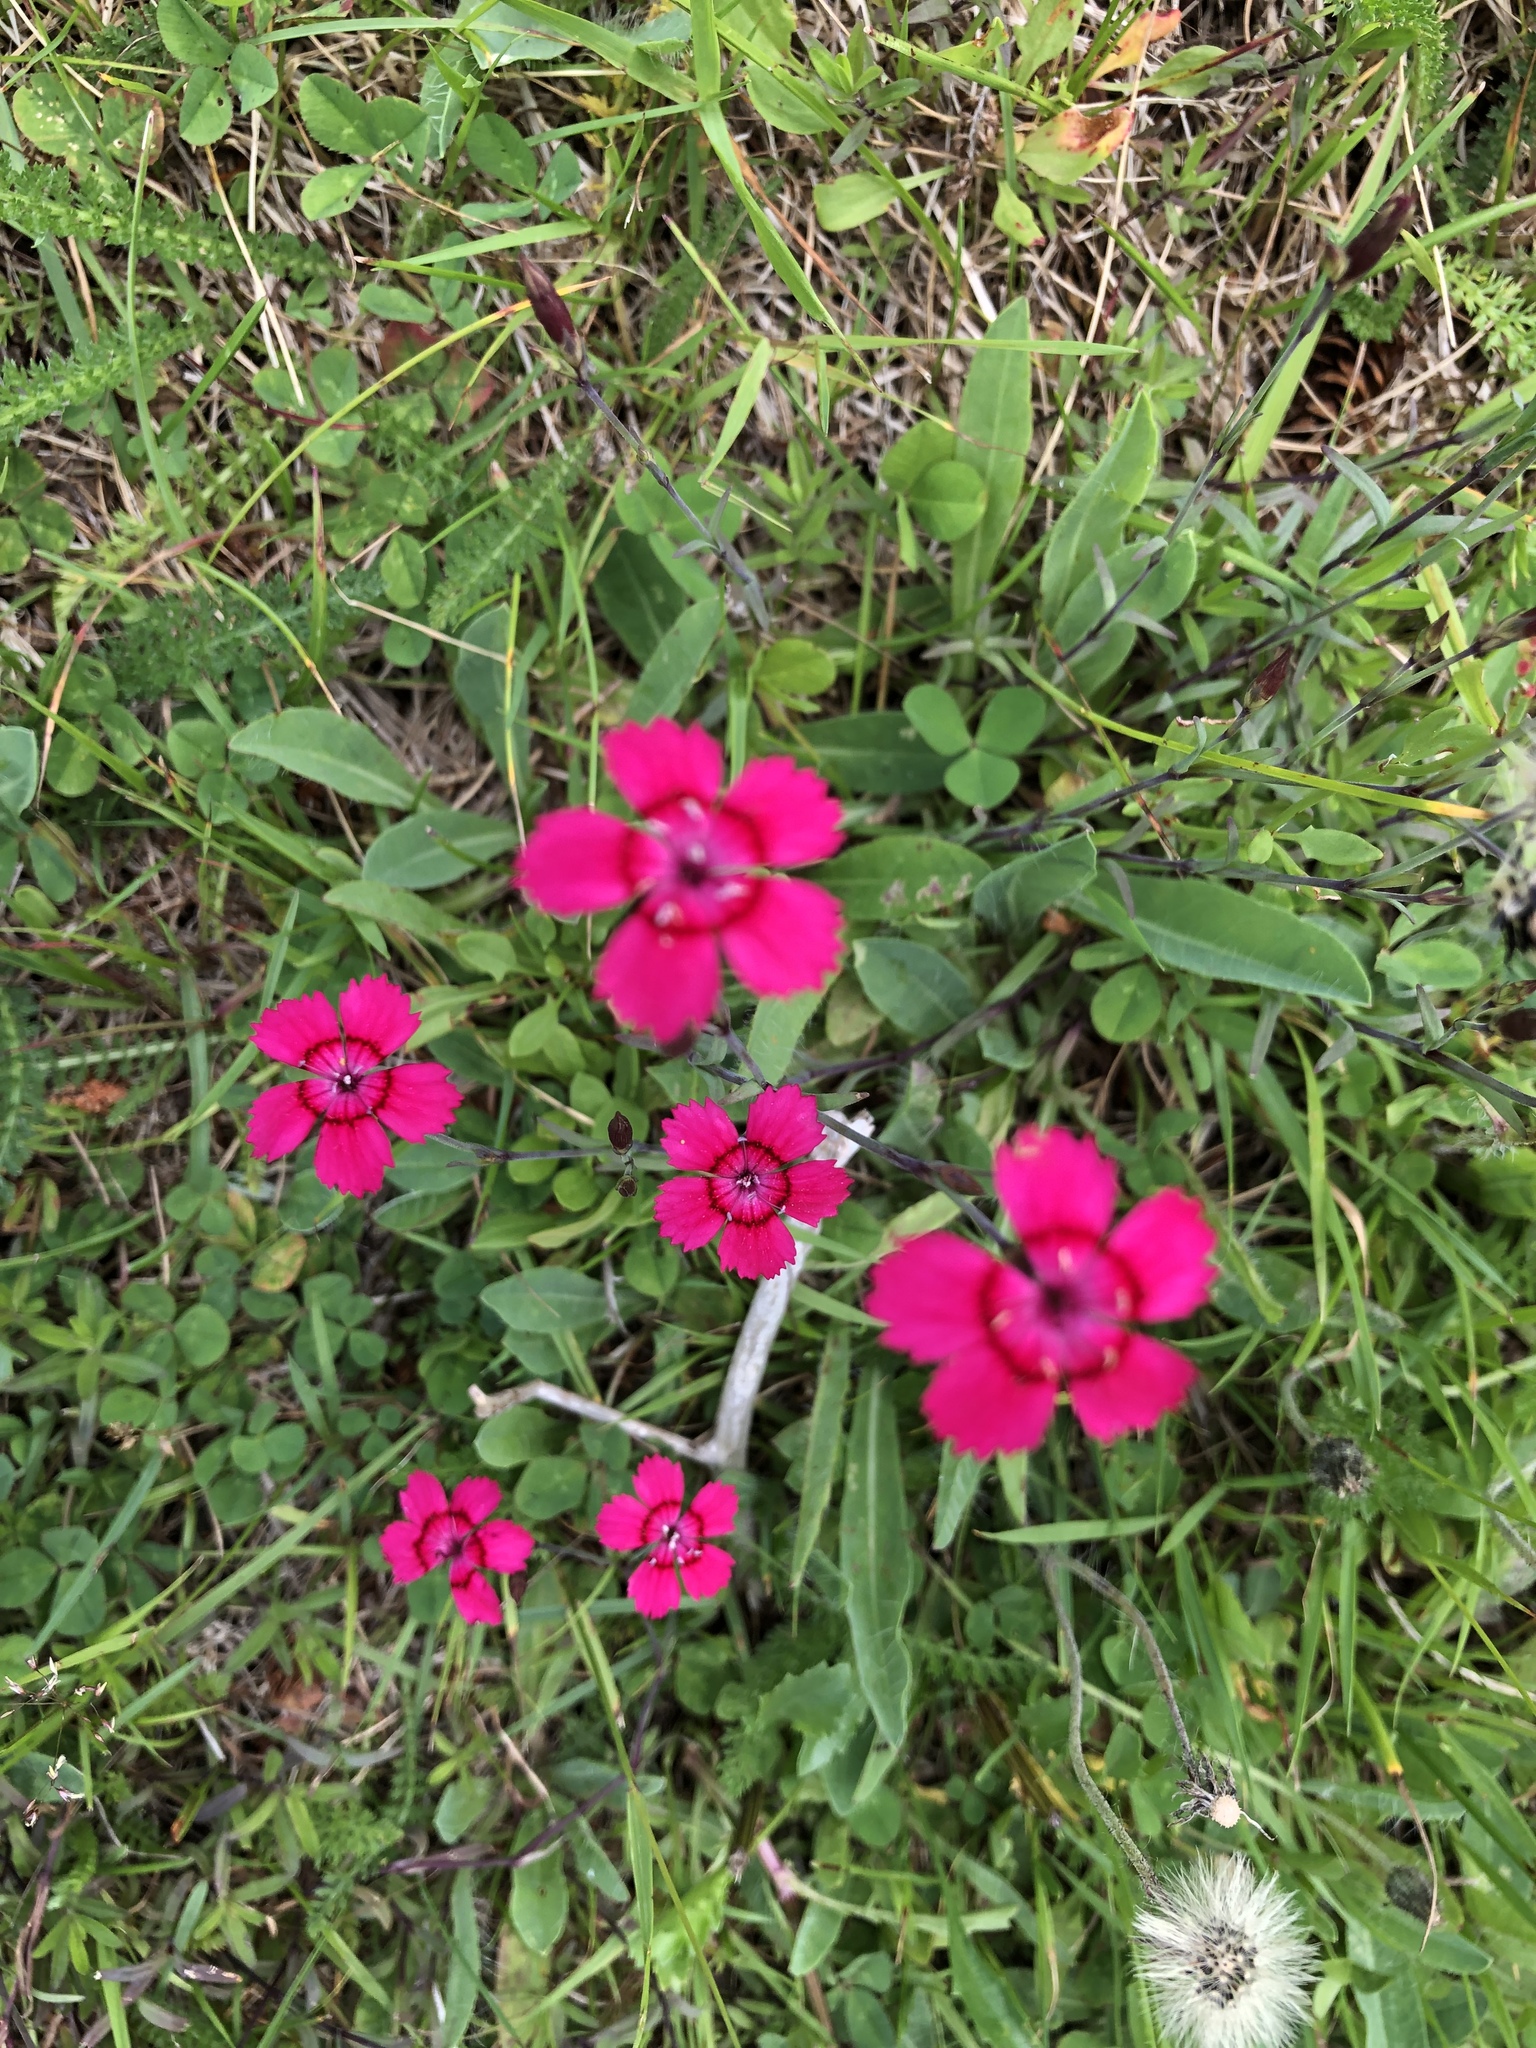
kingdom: Plantae
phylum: Tracheophyta
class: Magnoliopsida
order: Caryophyllales
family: Caryophyllaceae
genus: Dianthus
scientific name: Dianthus deltoides
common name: Maiden pink
